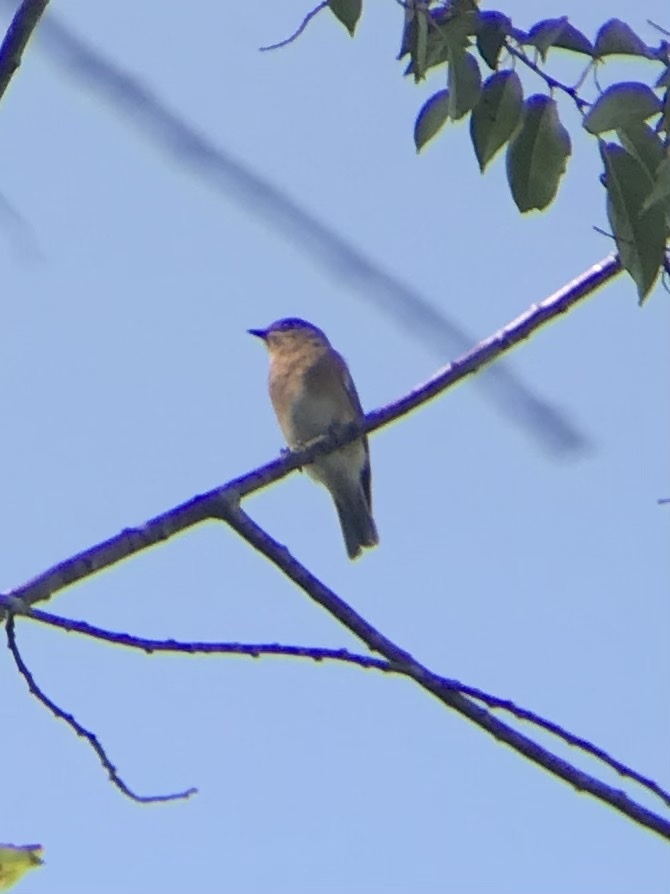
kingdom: Animalia
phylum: Chordata
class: Aves
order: Passeriformes
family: Turdidae
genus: Sialia
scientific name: Sialia sialis
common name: Eastern bluebird
